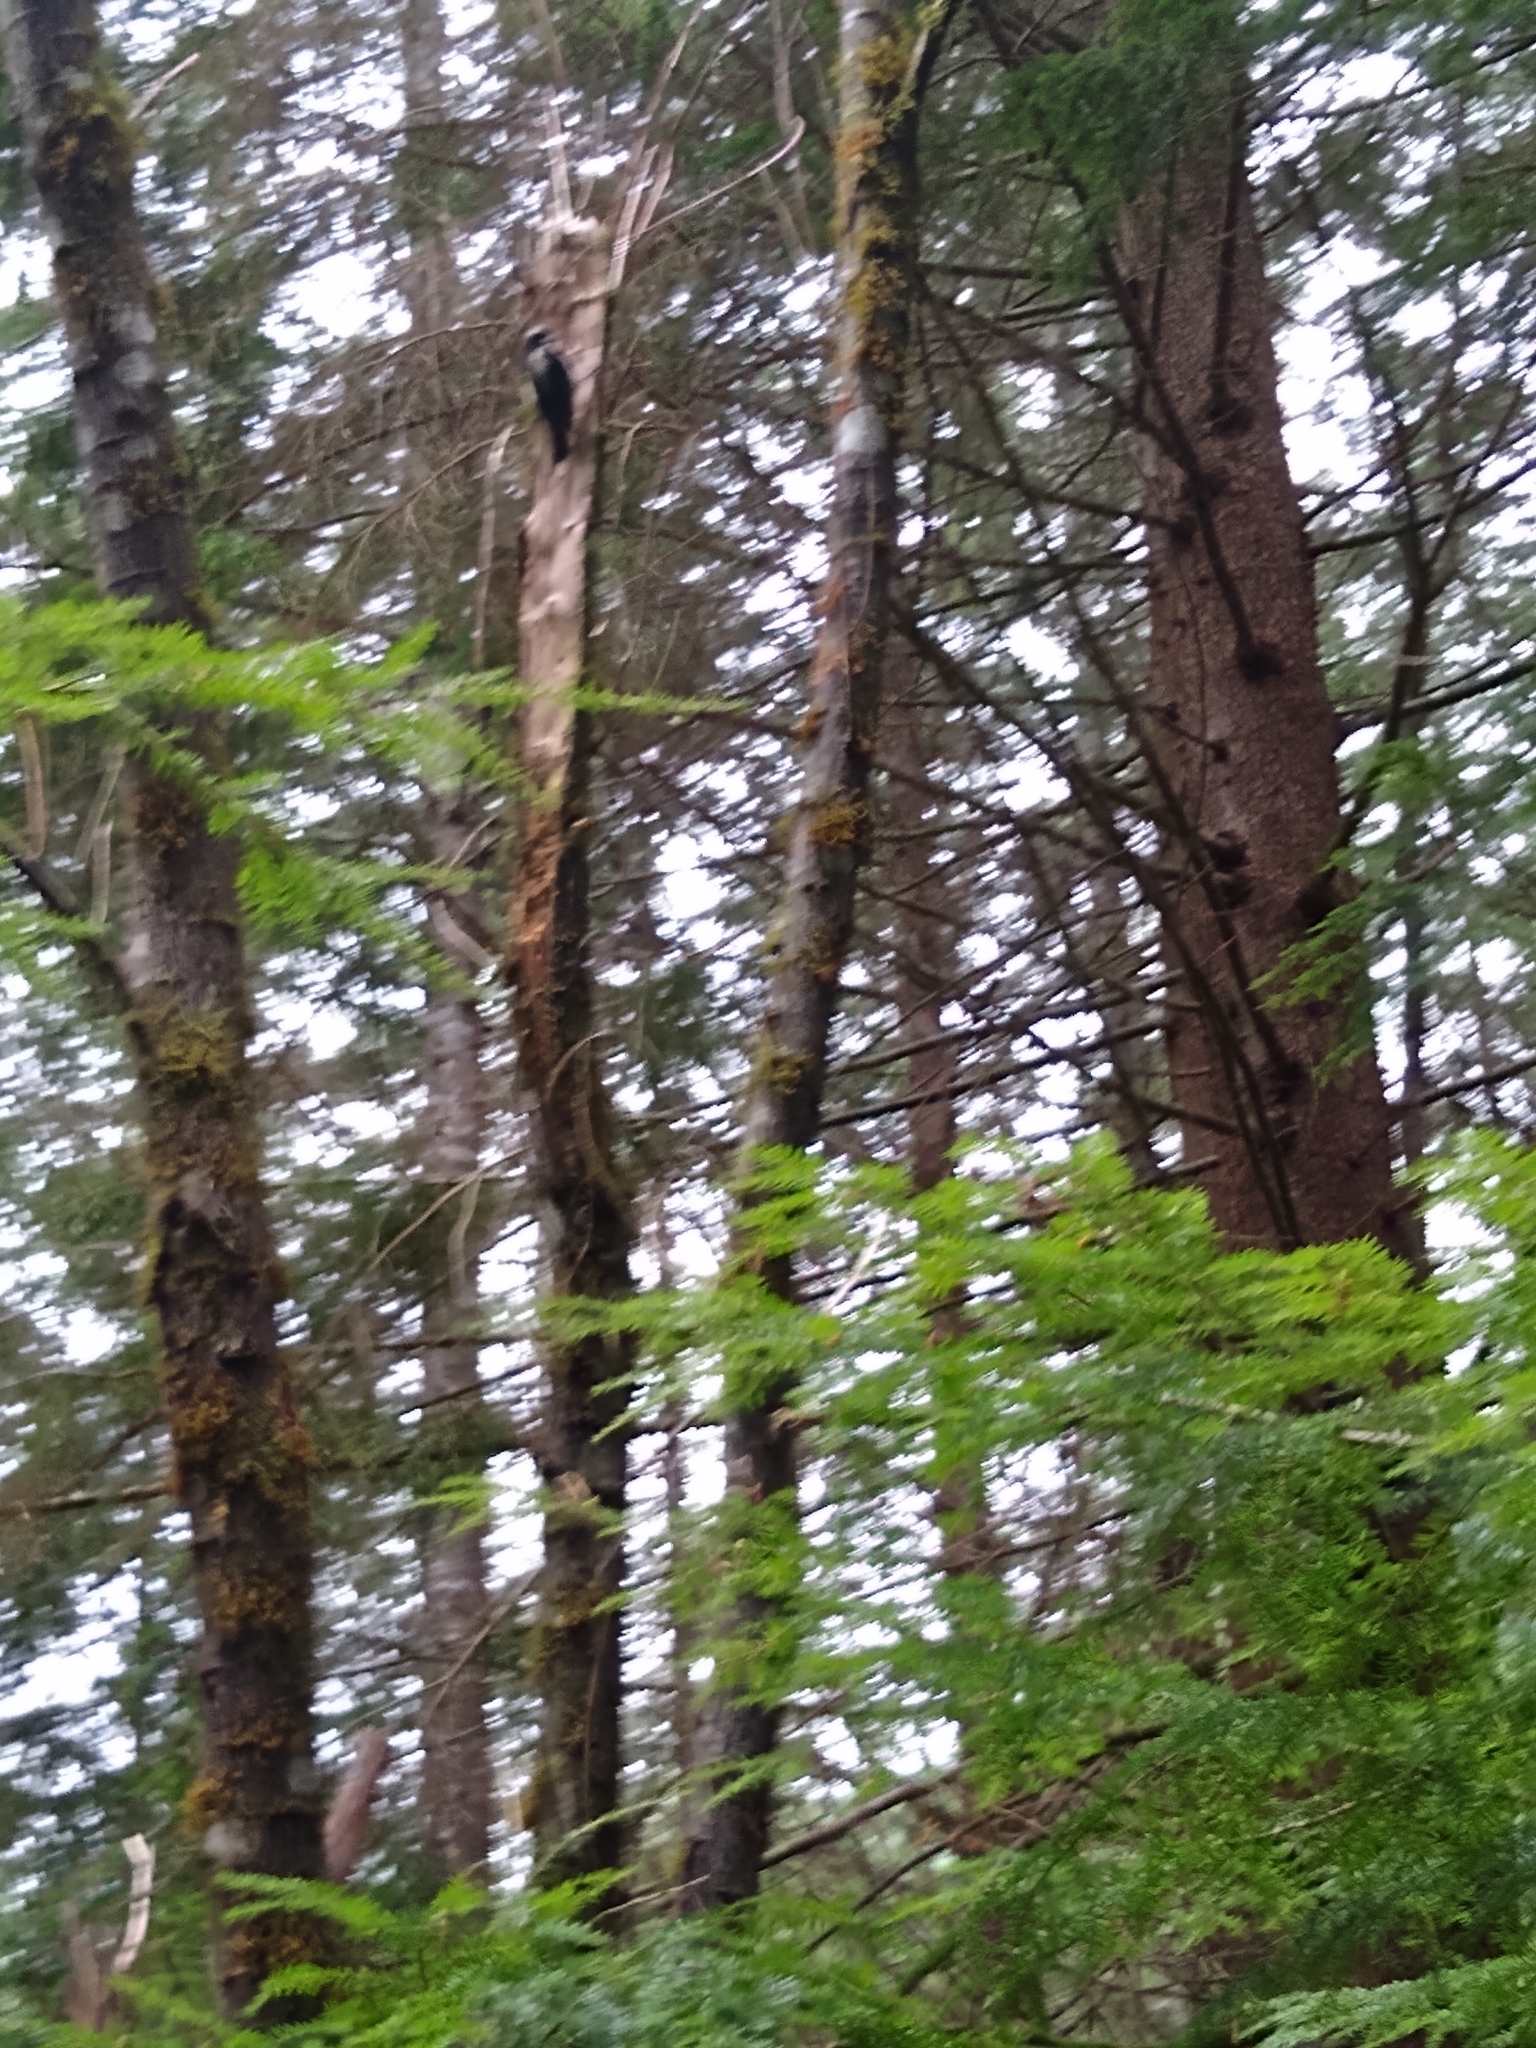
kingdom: Animalia
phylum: Chordata
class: Aves
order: Piciformes
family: Picidae
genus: Leuconotopicus
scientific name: Leuconotopicus villosus
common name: Hairy woodpecker
